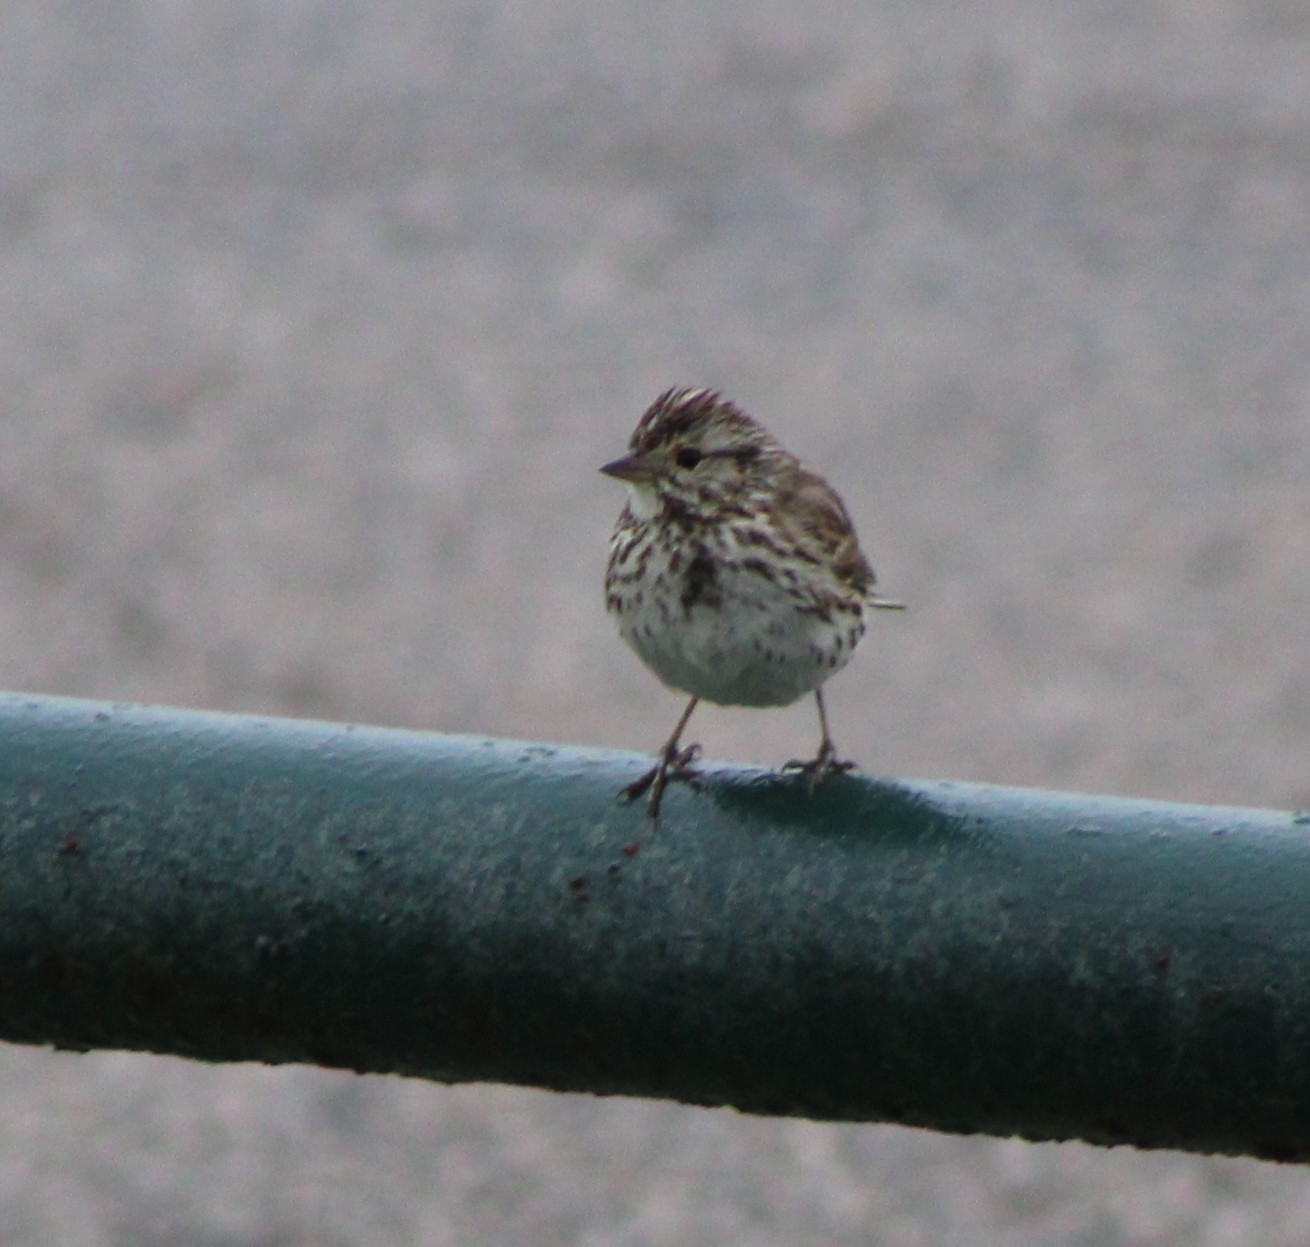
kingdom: Animalia
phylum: Chordata
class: Aves
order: Passeriformes
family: Passerellidae
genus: Passerculus
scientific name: Passerculus sandwichensis
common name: Savannah sparrow
